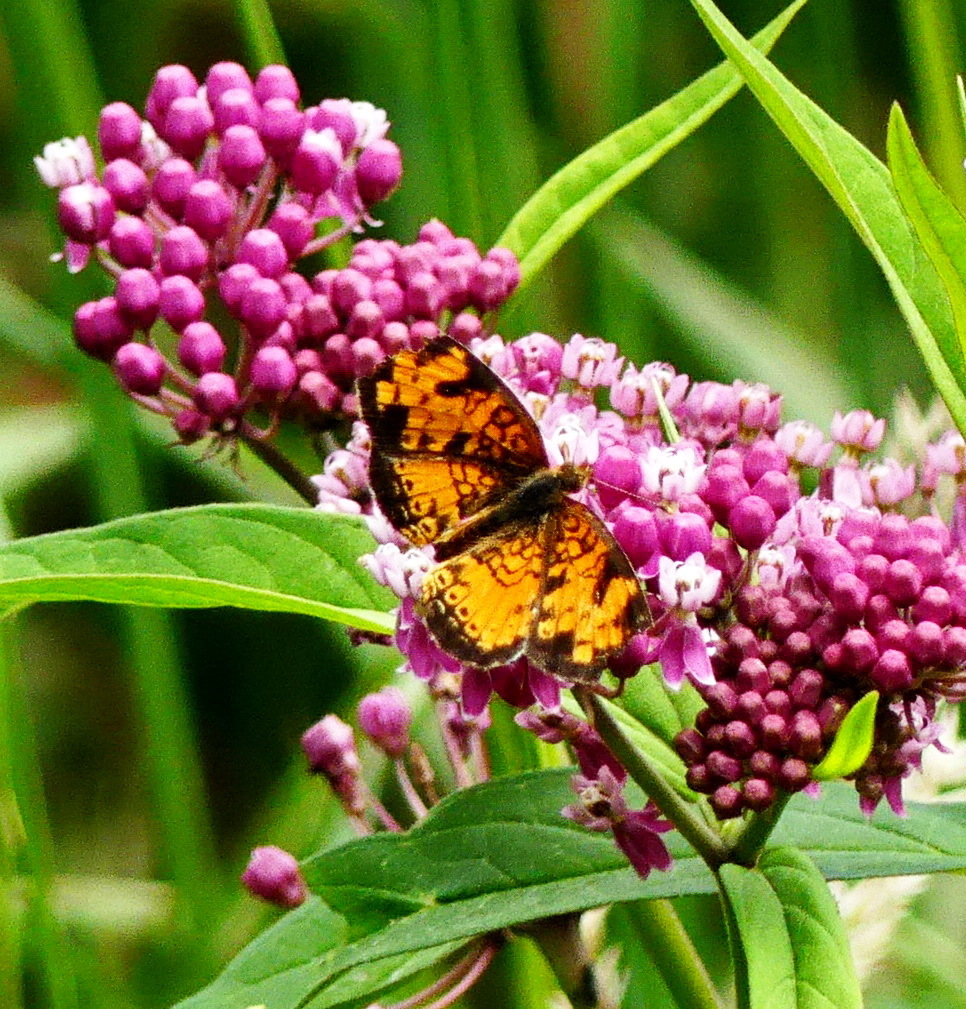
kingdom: Animalia
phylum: Arthropoda
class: Insecta
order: Lepidoptera
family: Nymphalidae
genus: Phyciodes
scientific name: Phyciodes tharos
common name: Pearl crescent
